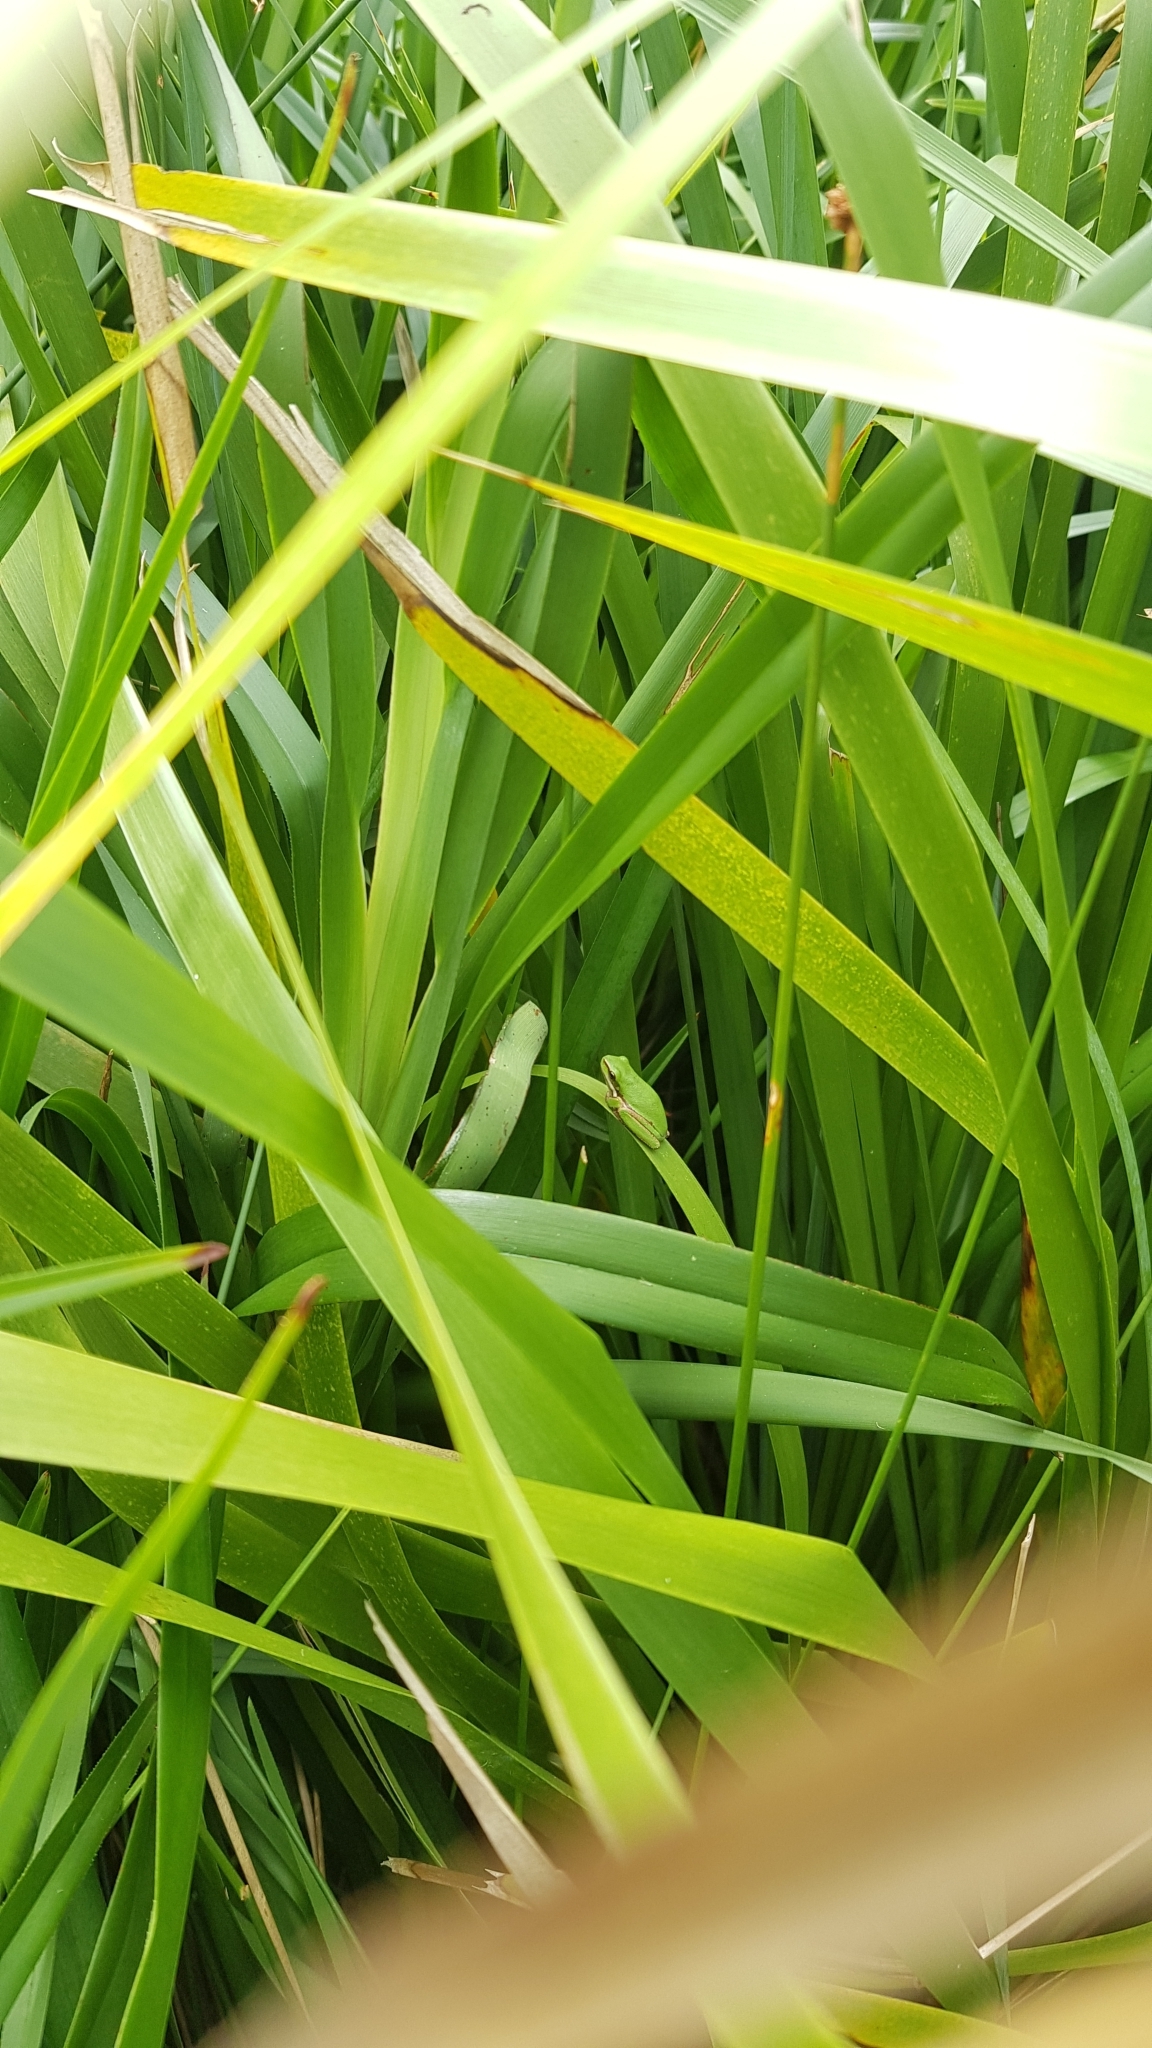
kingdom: Animalia
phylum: Chordata
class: Amphibia
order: Anura
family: Pelodryadidae
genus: Litoria
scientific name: Litoria fallax
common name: Eastern dwarf treefrog
